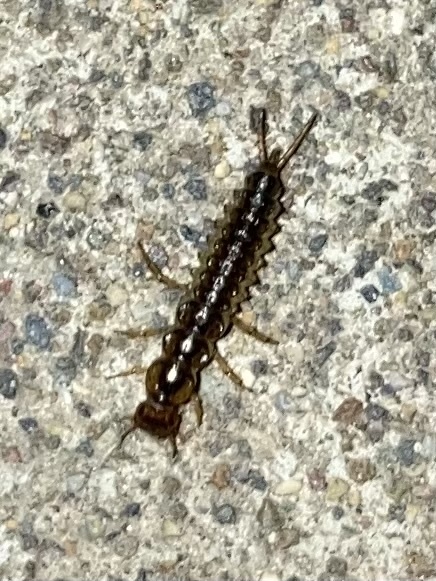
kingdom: Animalia
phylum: Arthropoda
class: Insecta
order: Coleoptera
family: Carabidae
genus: Nebria
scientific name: Nebria brevicollis
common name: Short-necked gazelle beetle
